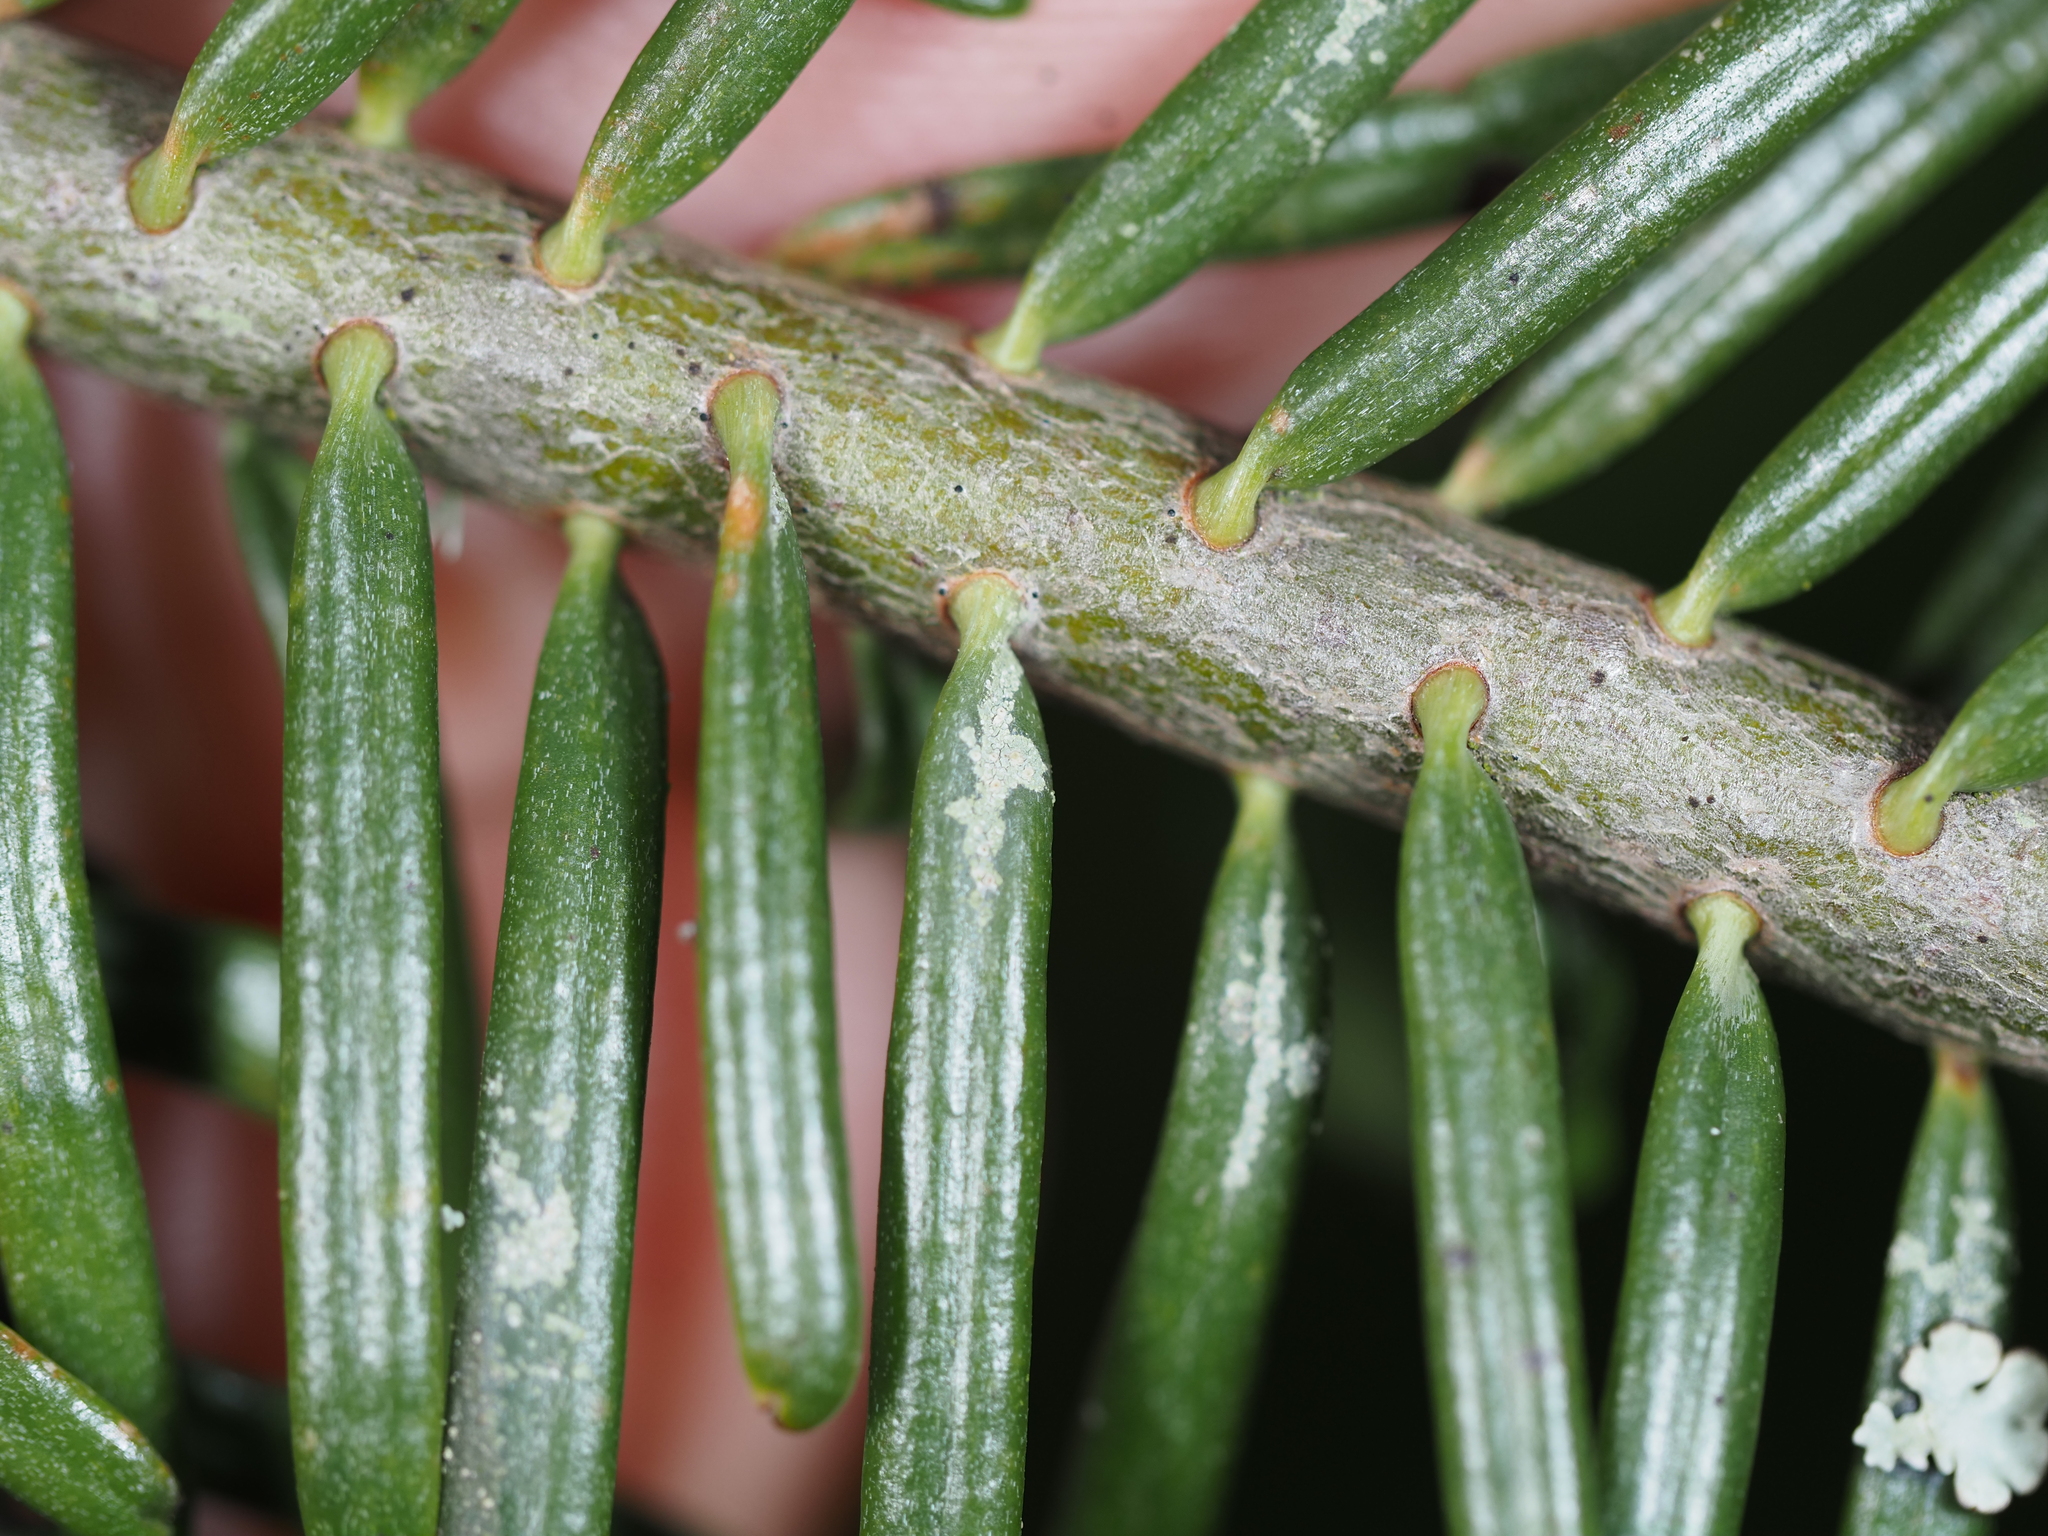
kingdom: Fungi
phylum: Ascomycota
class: Lecanoromycetes
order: Lecanorales
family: Byssolomataceae
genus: Fellhanera
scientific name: Fellhanera bouteillei
